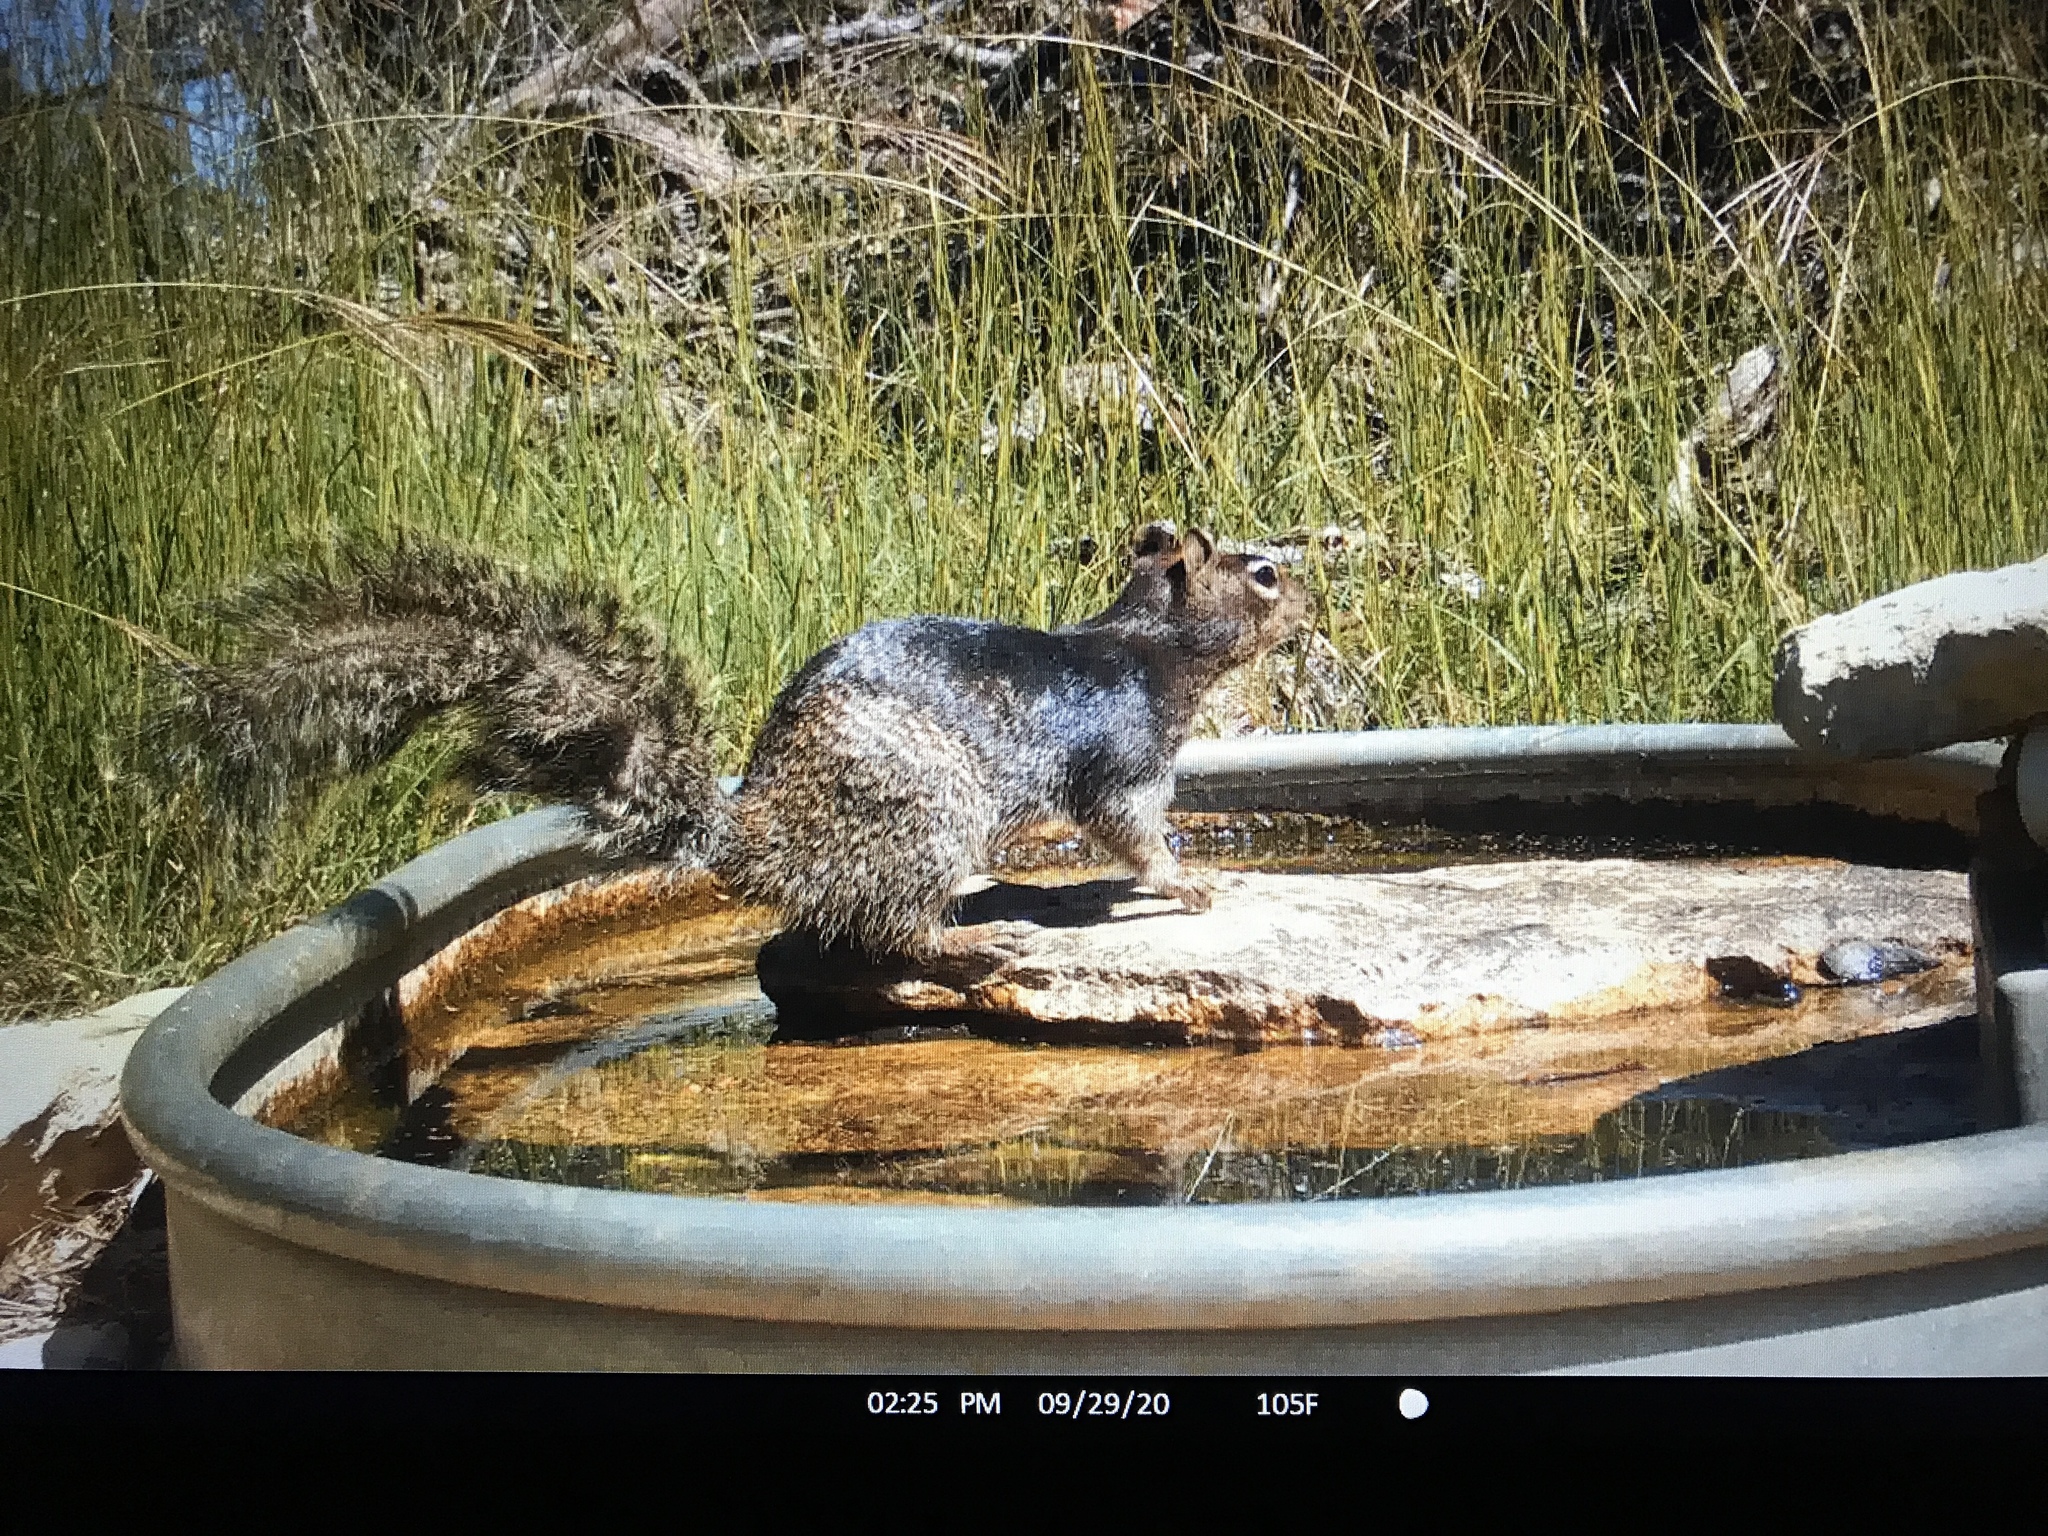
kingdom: Animalia
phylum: Chordata
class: Mammalia
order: Rodentia
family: Sciuridae
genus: Otospermophilus
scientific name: Otospermophilus variegatus
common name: Rock squirrel
